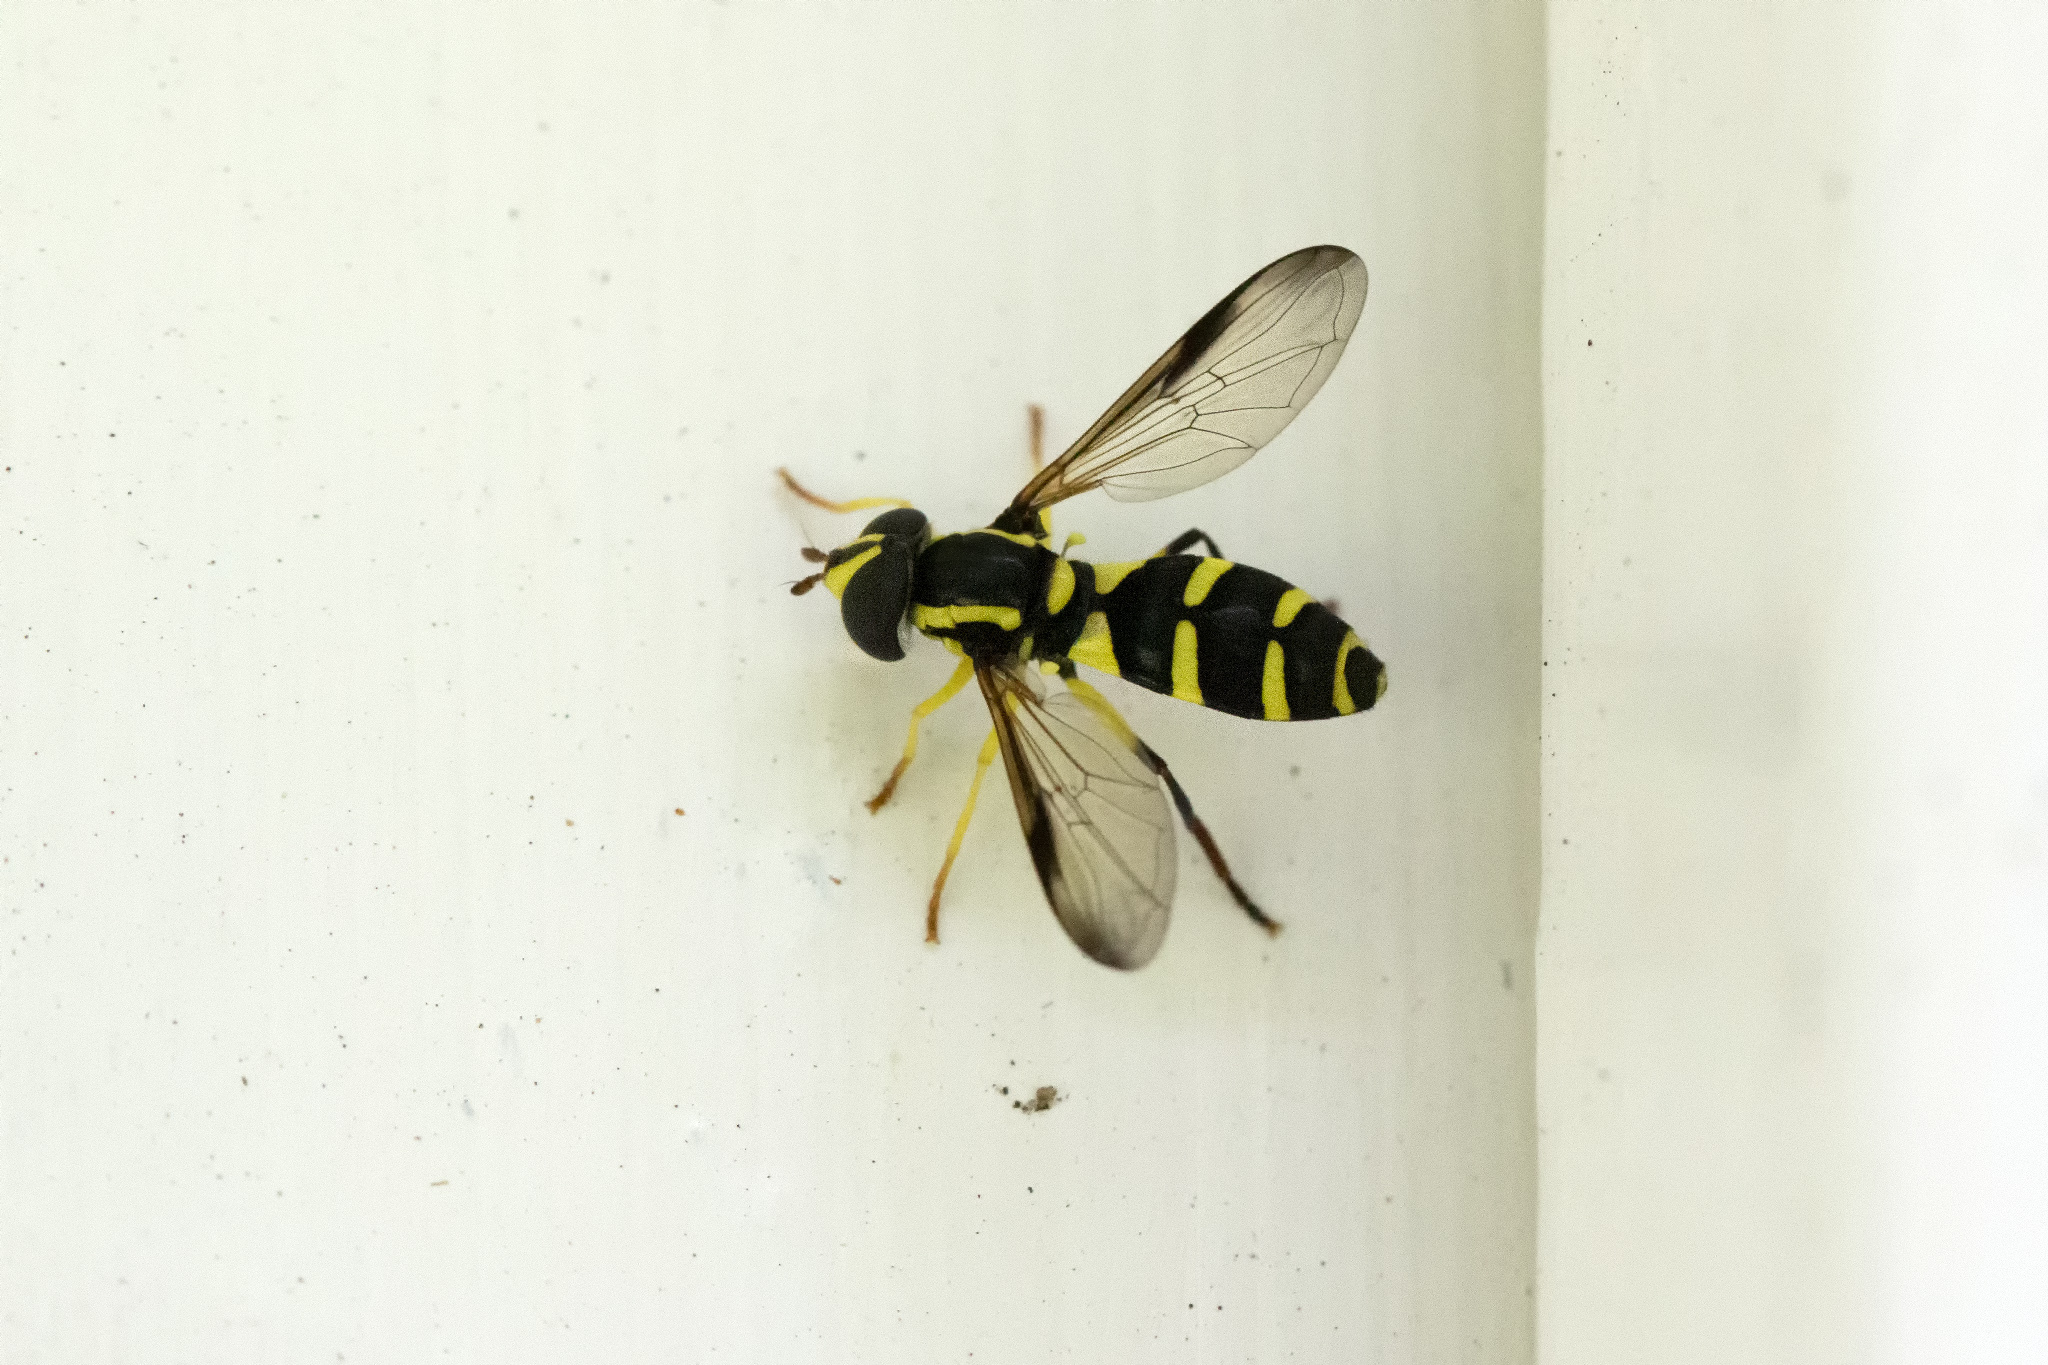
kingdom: Animalia
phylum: Arthropoda
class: Insecta
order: Diptera
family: Syrphidae
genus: Philhelius
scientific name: Philhelius dives
